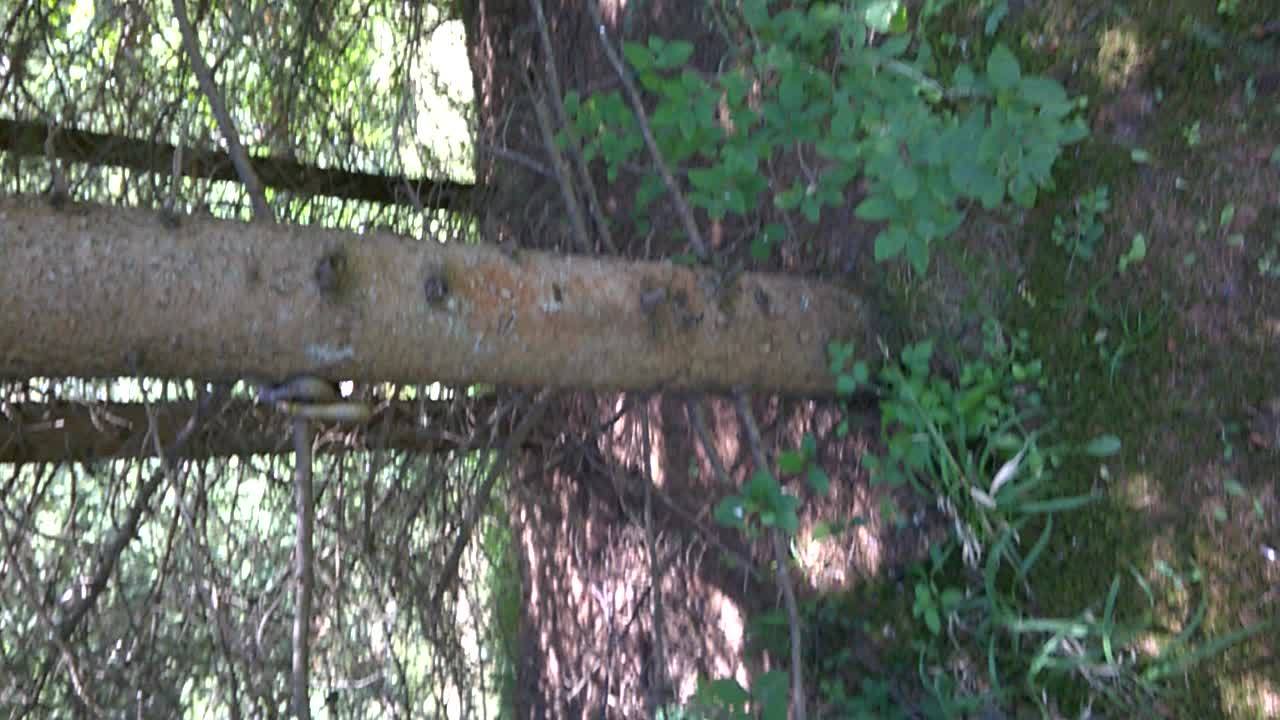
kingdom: Animalia
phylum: Chordata
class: Squamata
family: Colubridae
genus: Zamenis
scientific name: Zamenis longissimus
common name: Aesculapean snake
